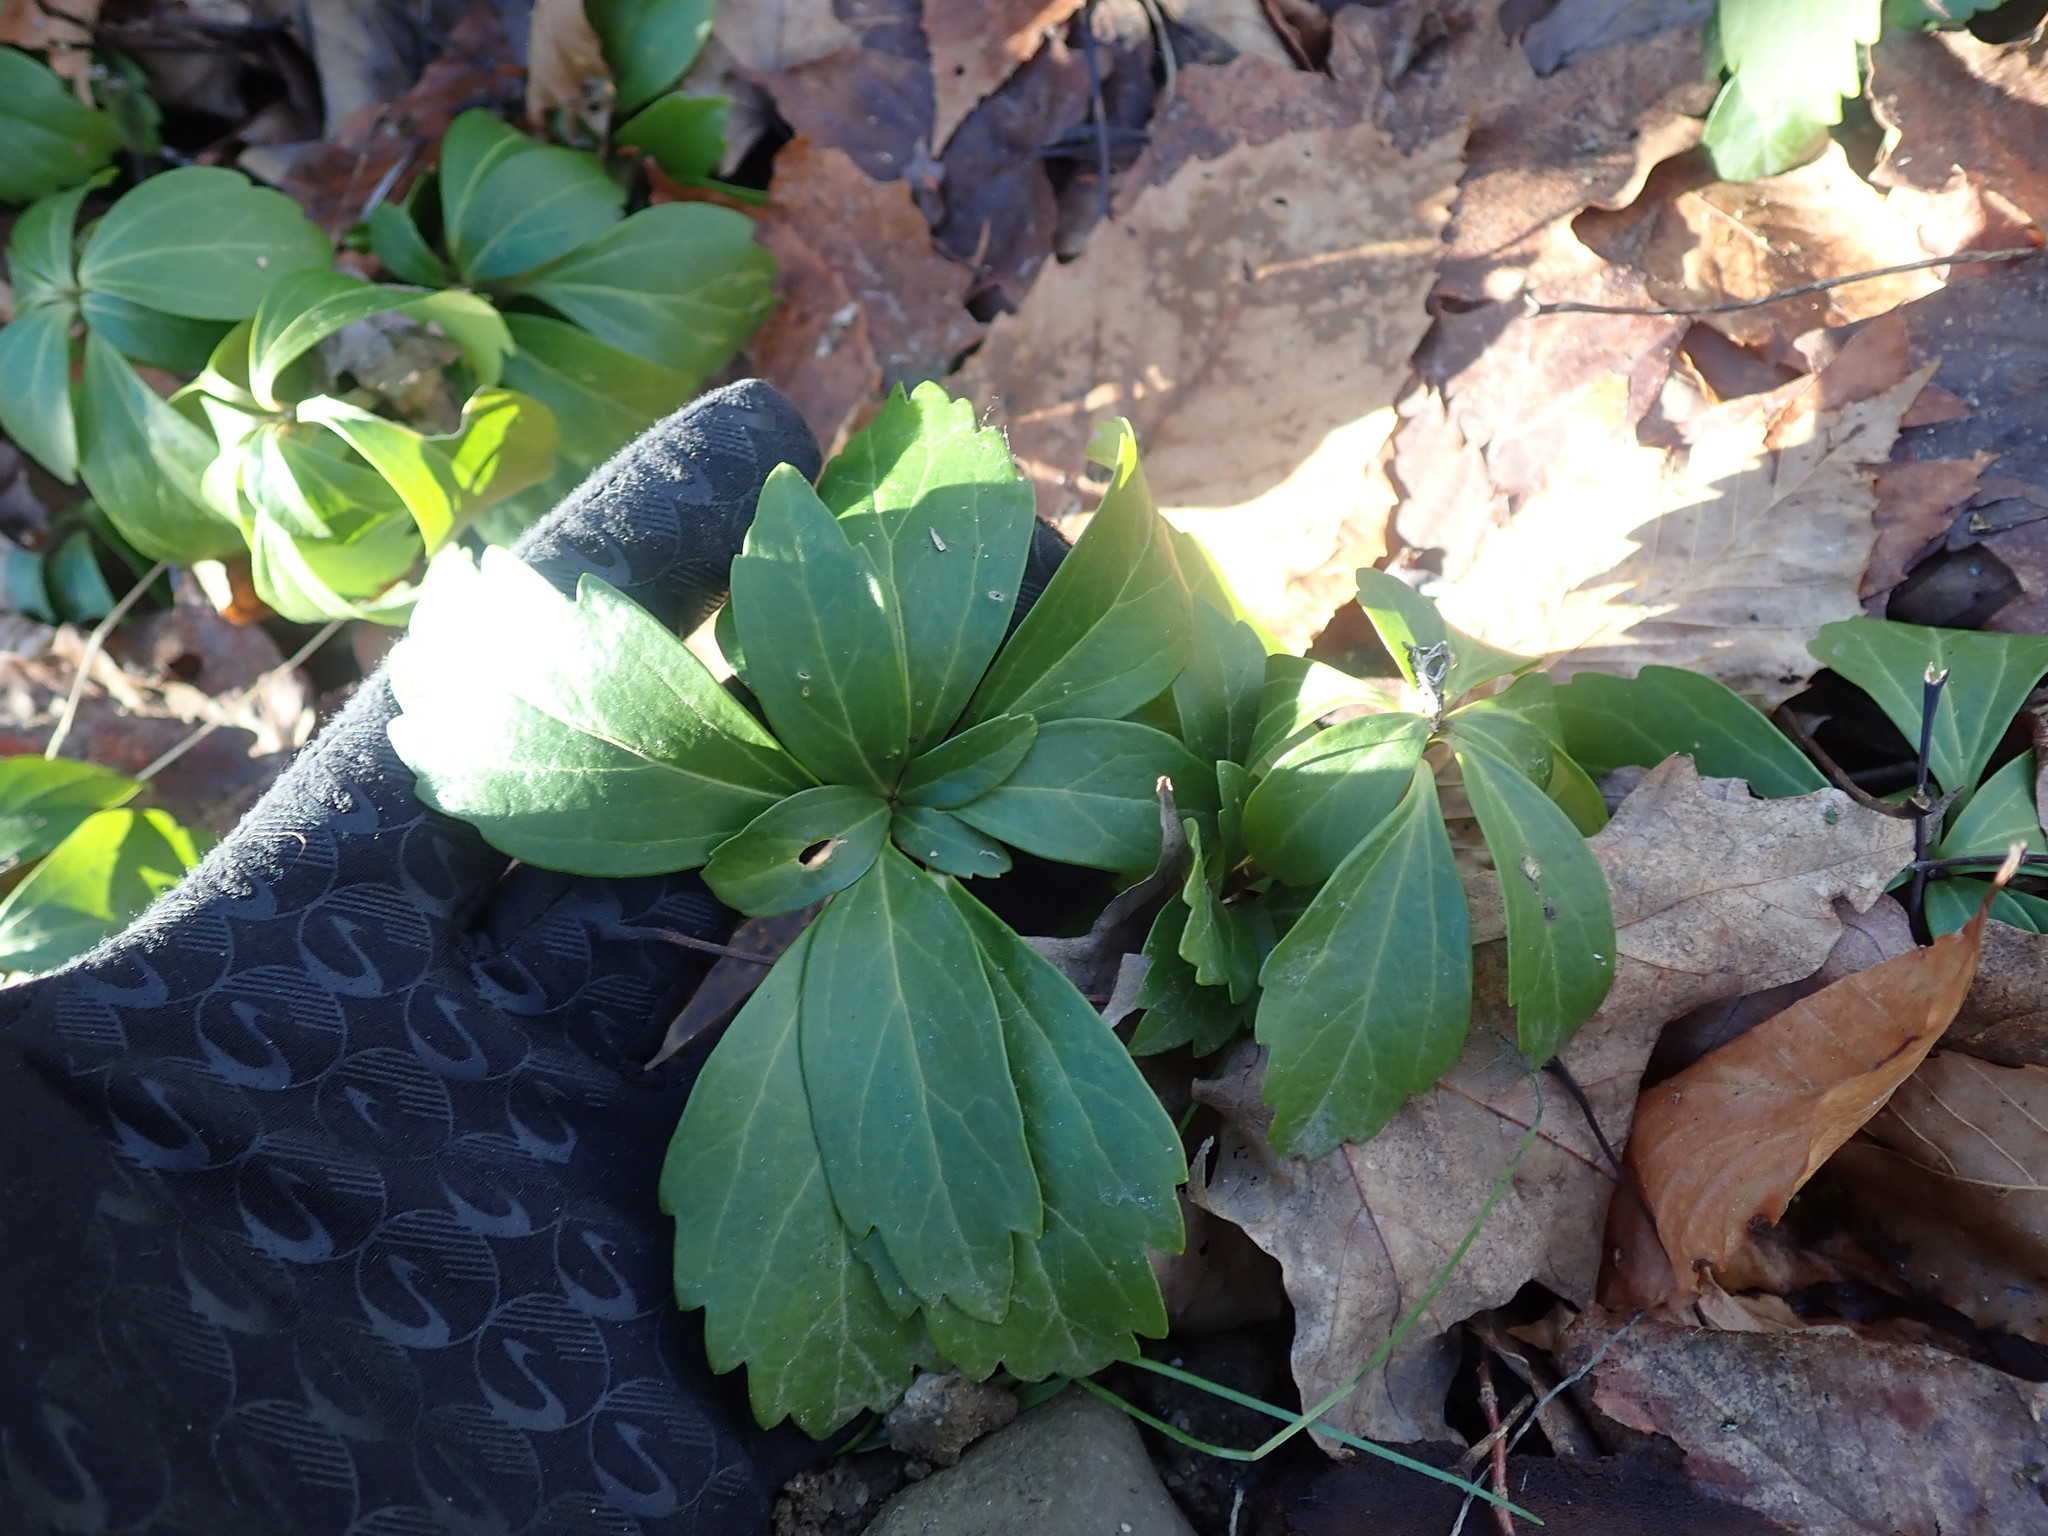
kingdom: Plantae
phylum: Tracheophyta
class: Magnoliopsida
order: Buxales
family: Buxaceae
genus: Pachysandra
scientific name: Pachysandra terminalis
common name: Japanese pachysandra
